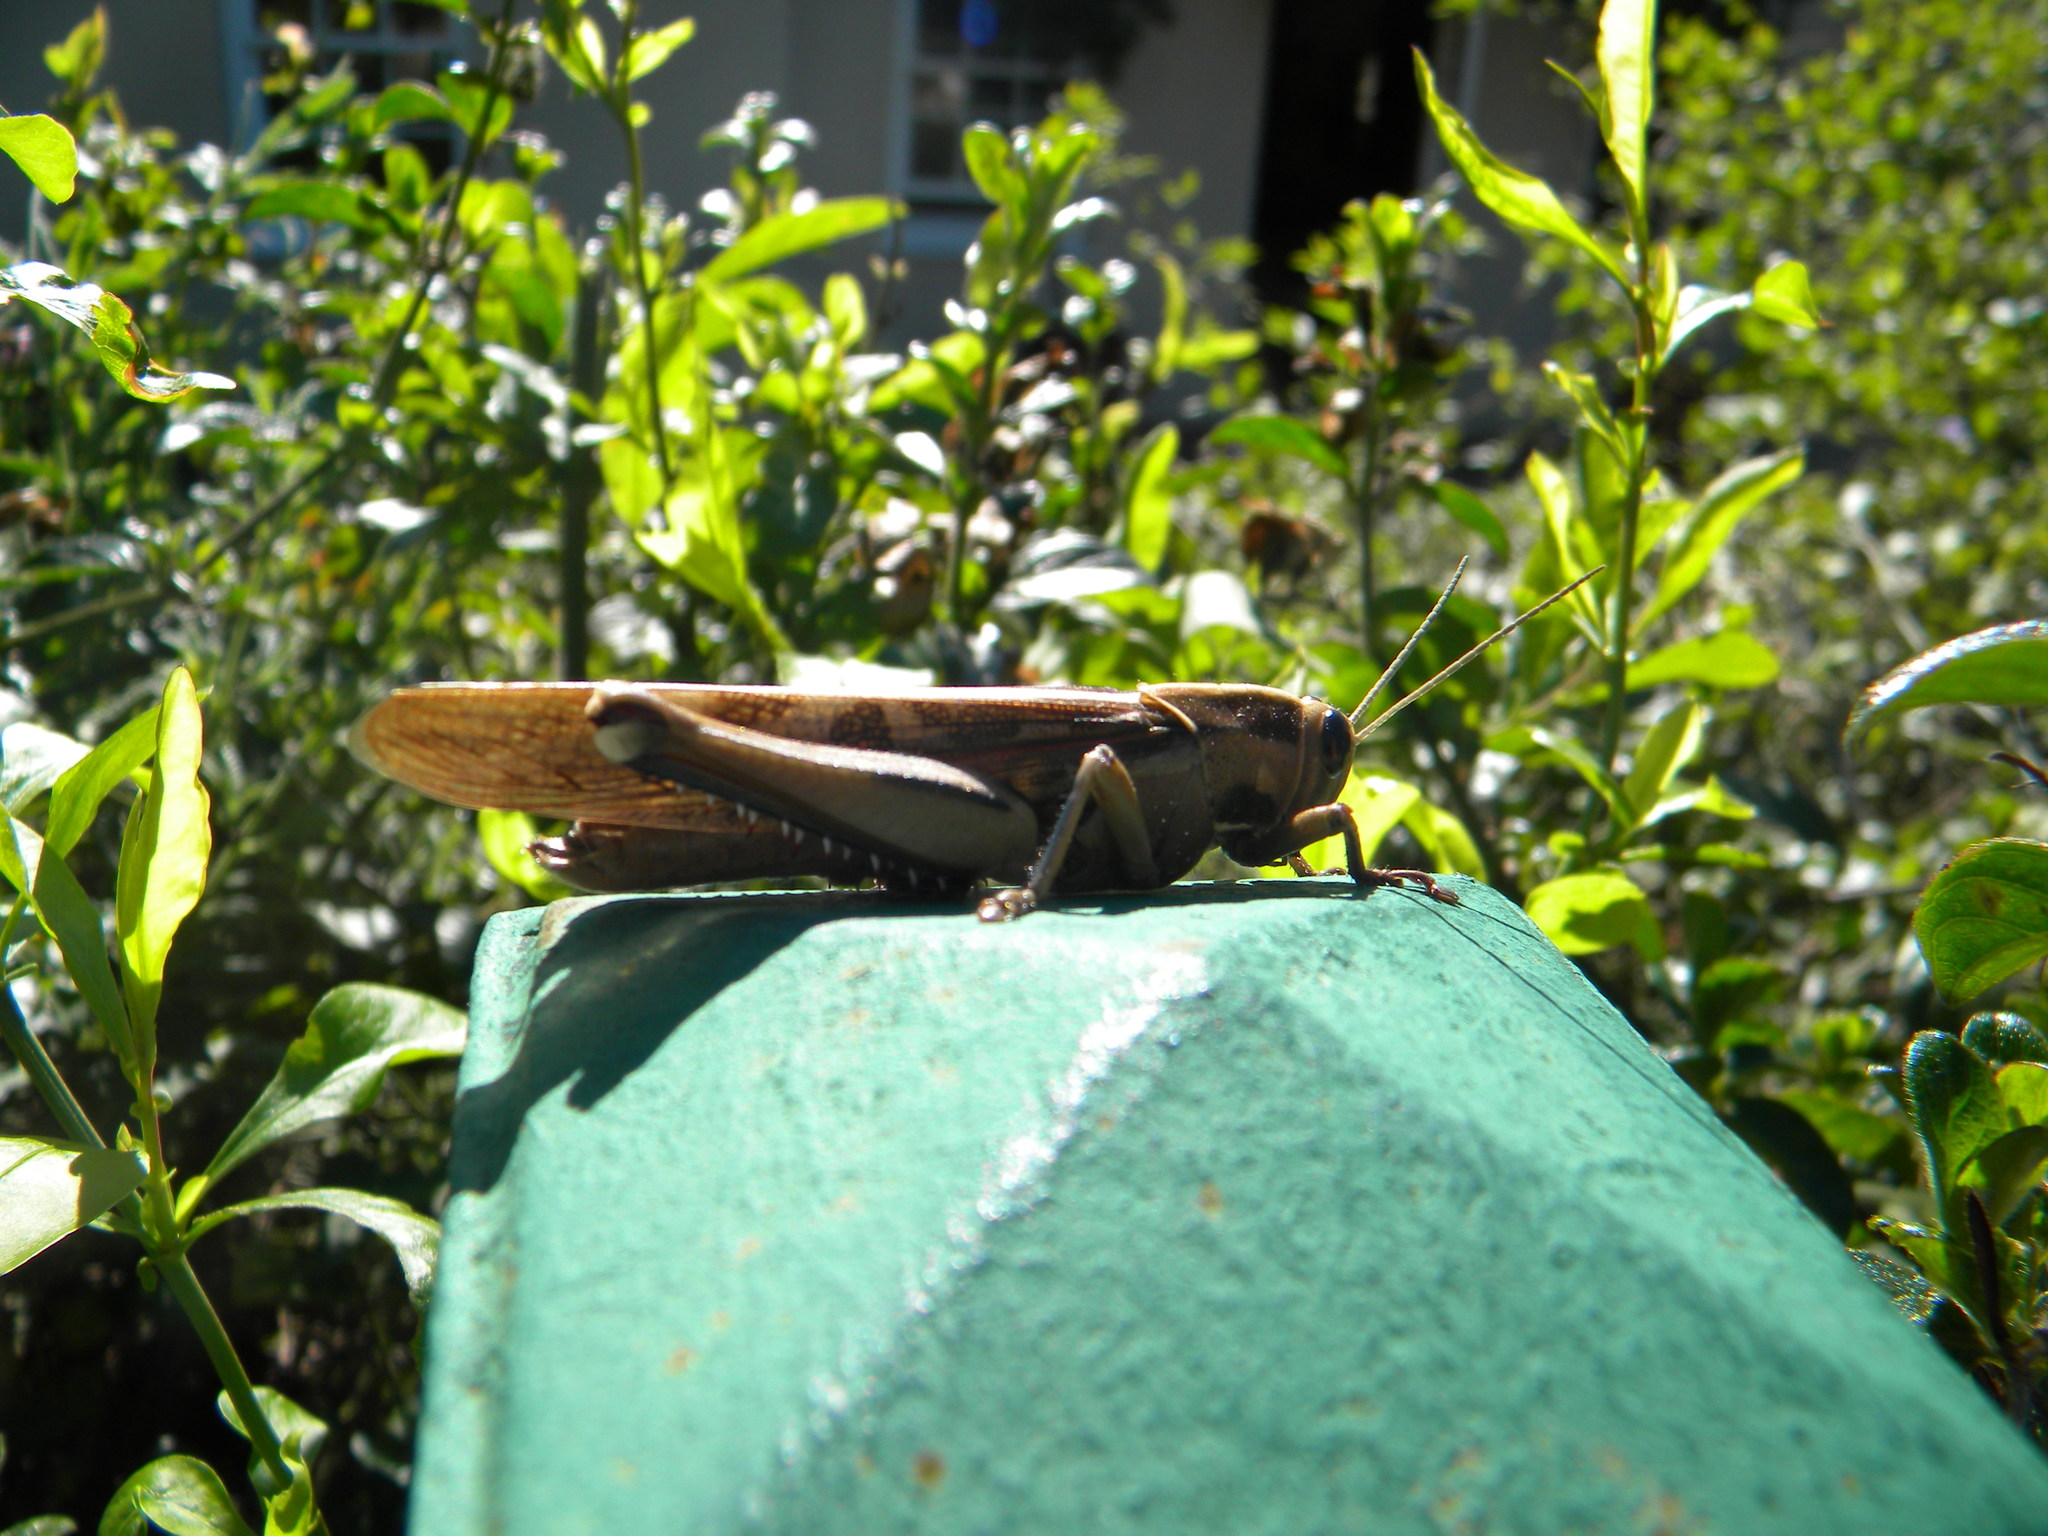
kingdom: Animalia
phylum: Arthropoda
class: Insecta
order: Orthoptera
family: Acrididae
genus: Acanthacris
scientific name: Acanthacris ruficornis
